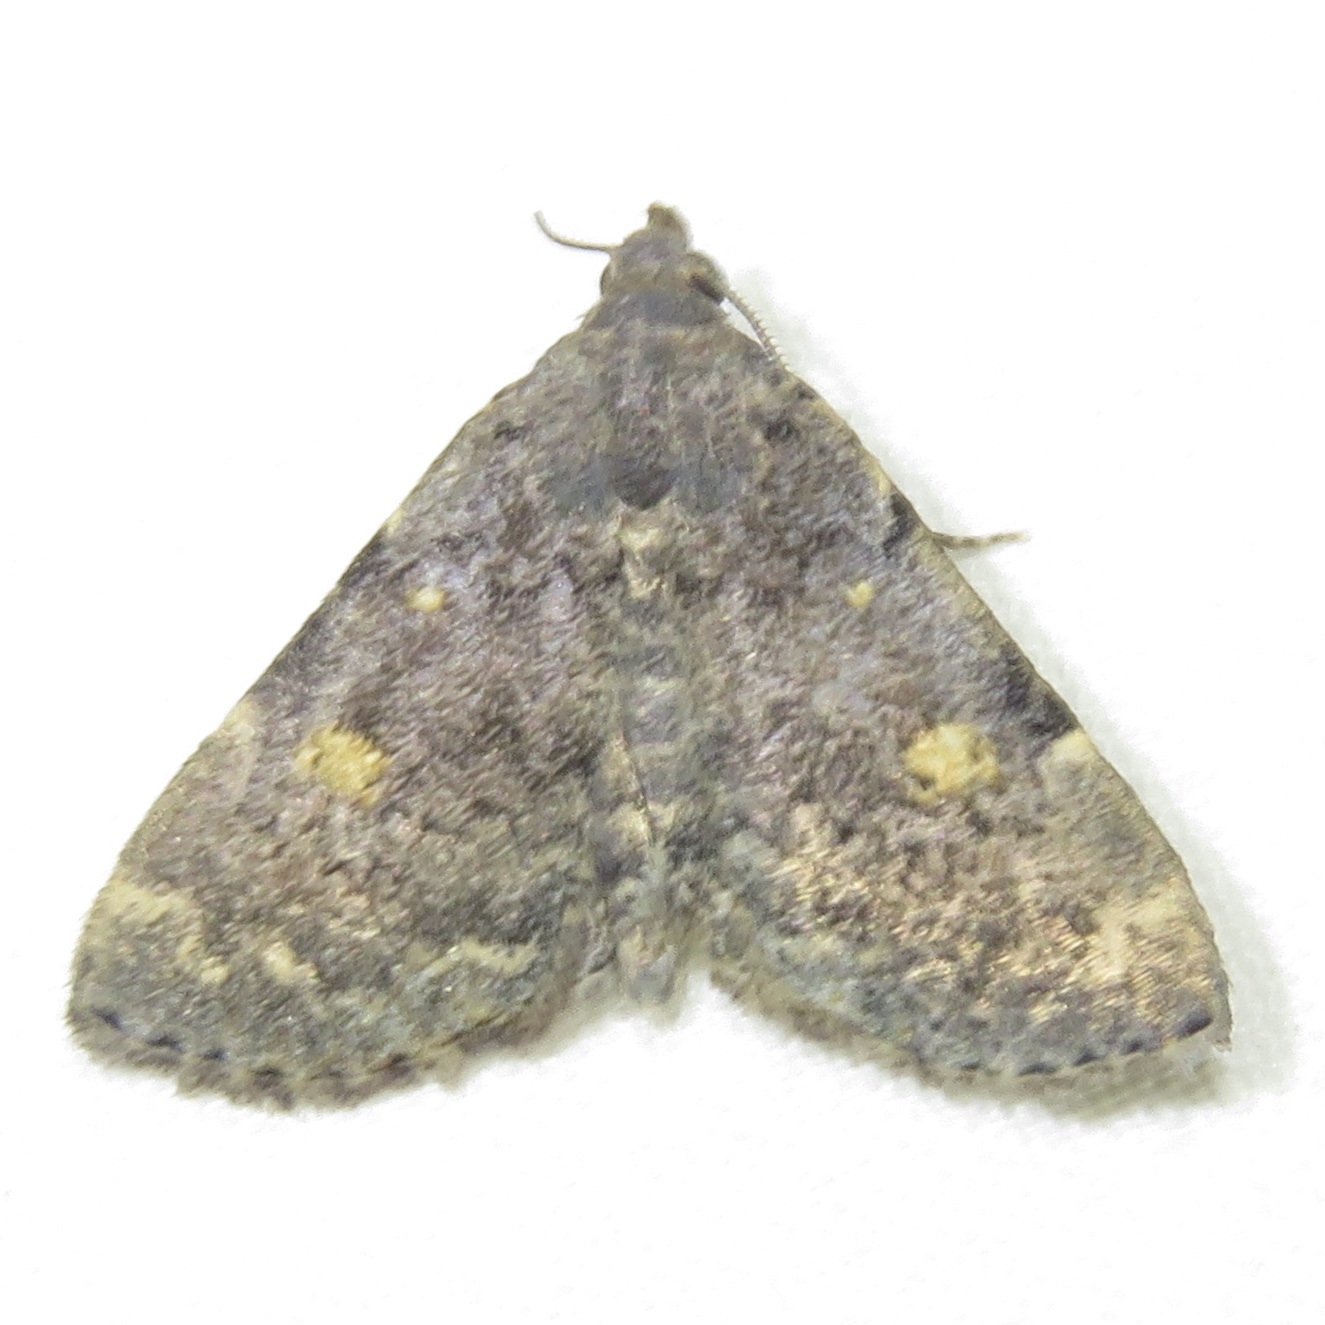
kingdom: Animalia
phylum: Arthropoda
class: Insecta
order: Lepidoptera
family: Erebidae
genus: Idia
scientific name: Idia aemula
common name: Common idia moth
